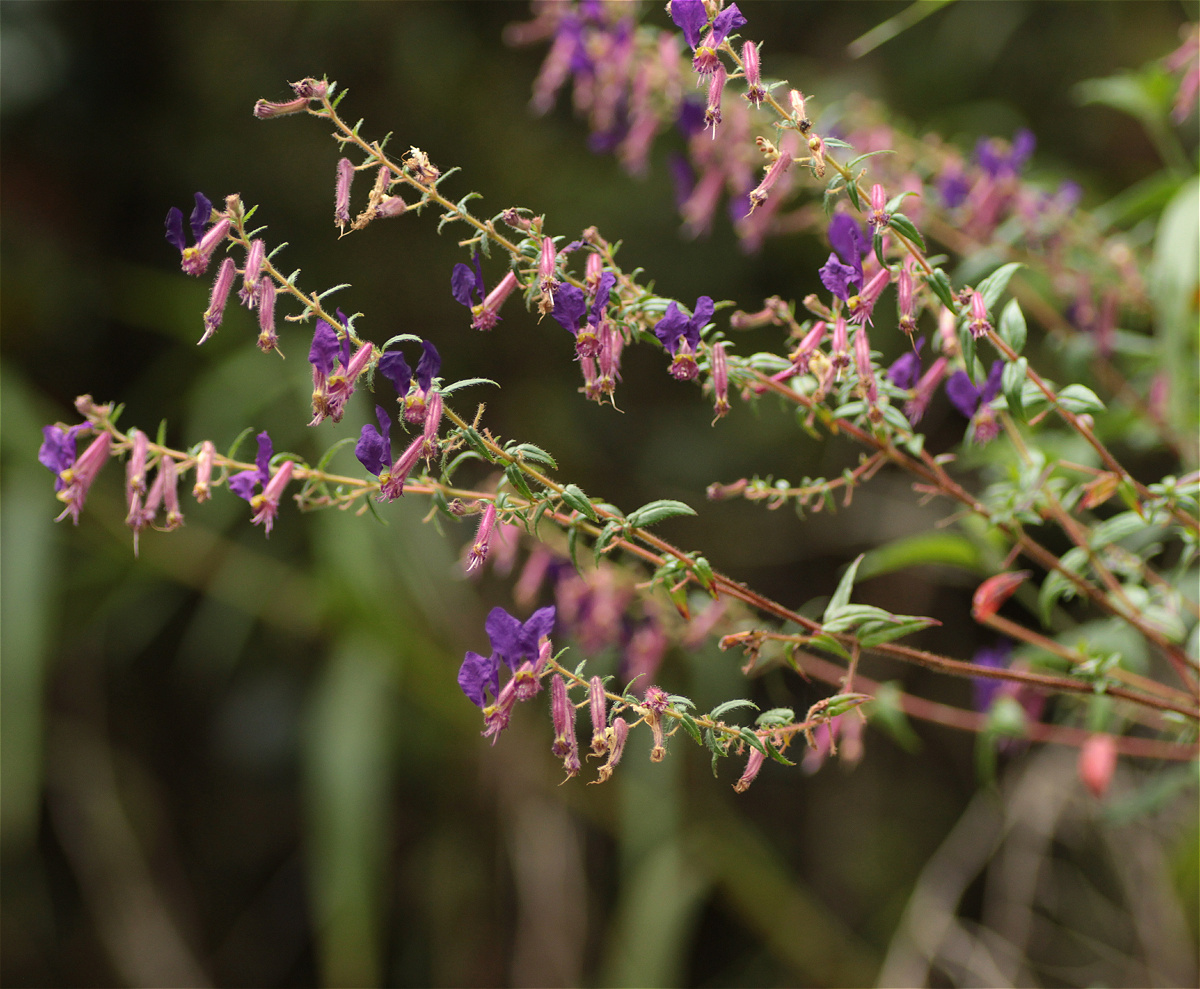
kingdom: Plantae
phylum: Tracheophyta
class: Magnoliopsida
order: Myrtales
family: Lythraceae
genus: Cuphea
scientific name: Cuphea dipetala
